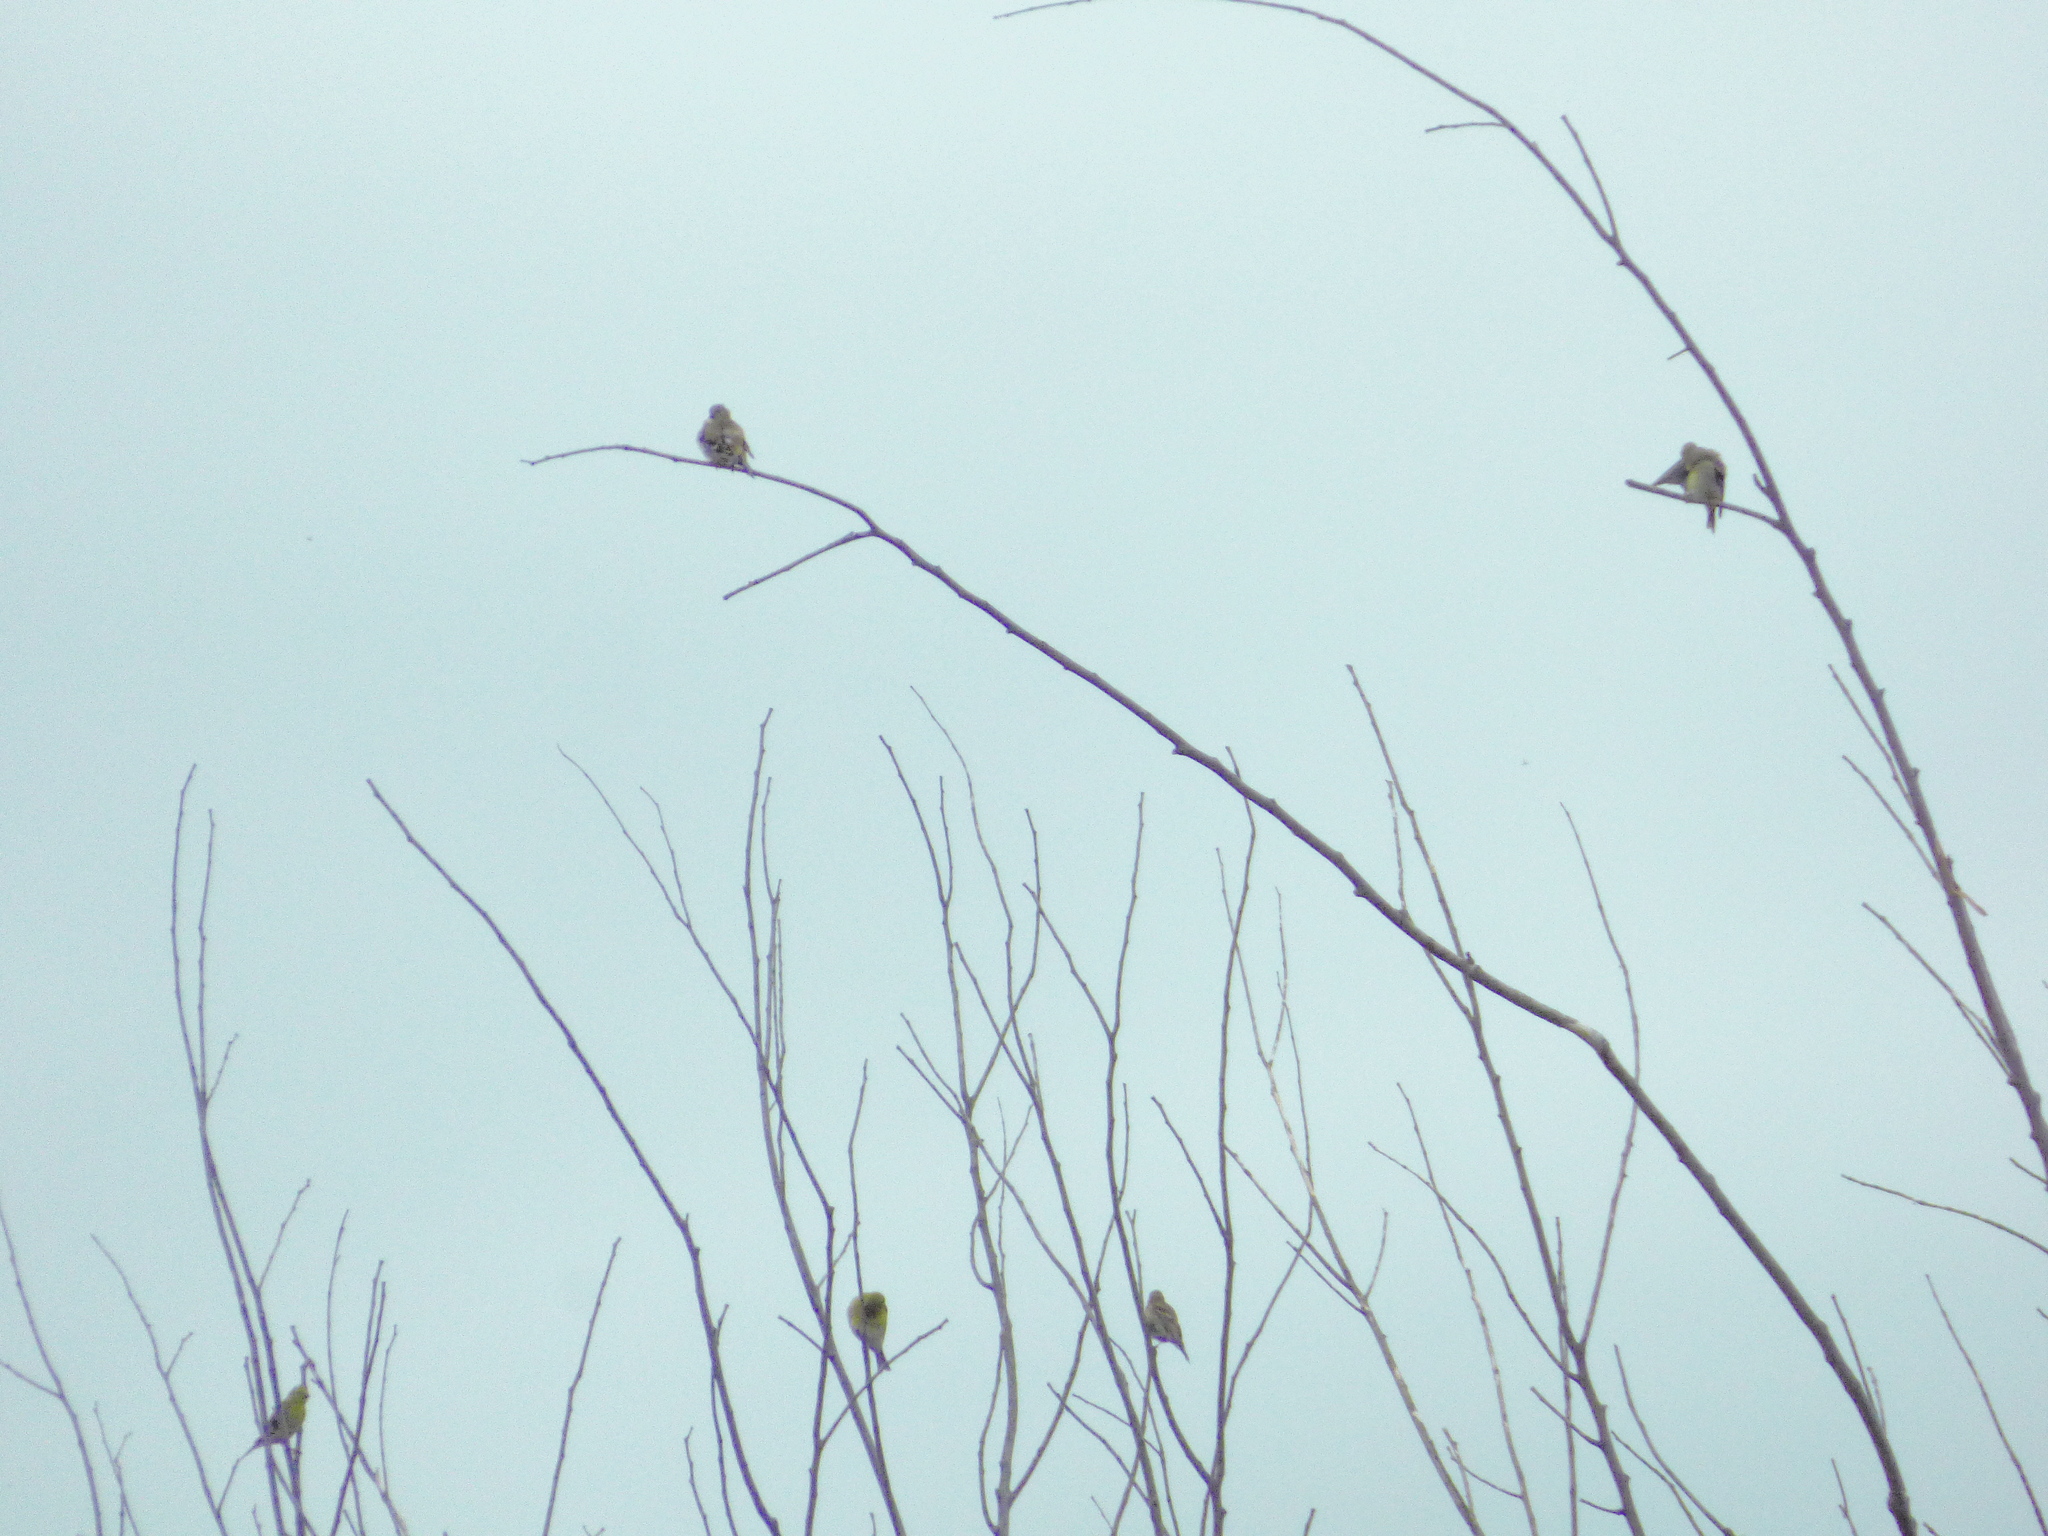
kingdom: Animalia
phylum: Chordata
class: Aves
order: Passeriformes
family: Fringillidae
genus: Spinus
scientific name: Spinus tristis
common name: American goldfinch
